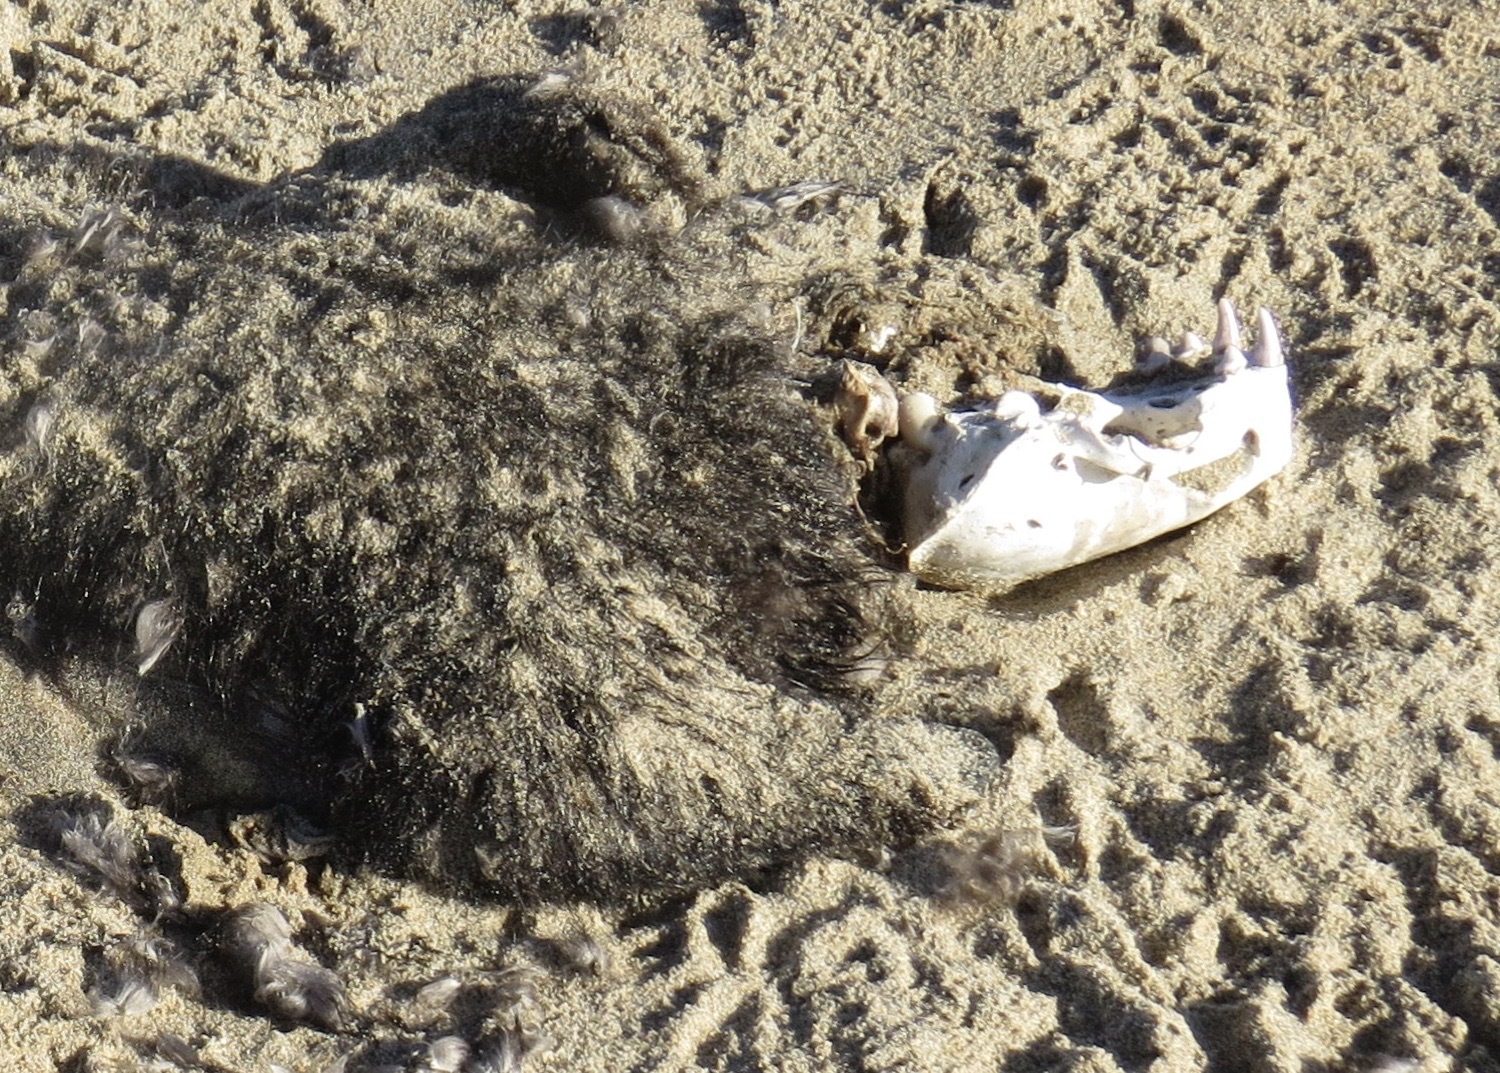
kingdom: Animalia
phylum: Chordata
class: Mammalia
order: Carnivora
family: Mustelidae
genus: Enhydra
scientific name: Enhydra lutris
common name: Sea otter
